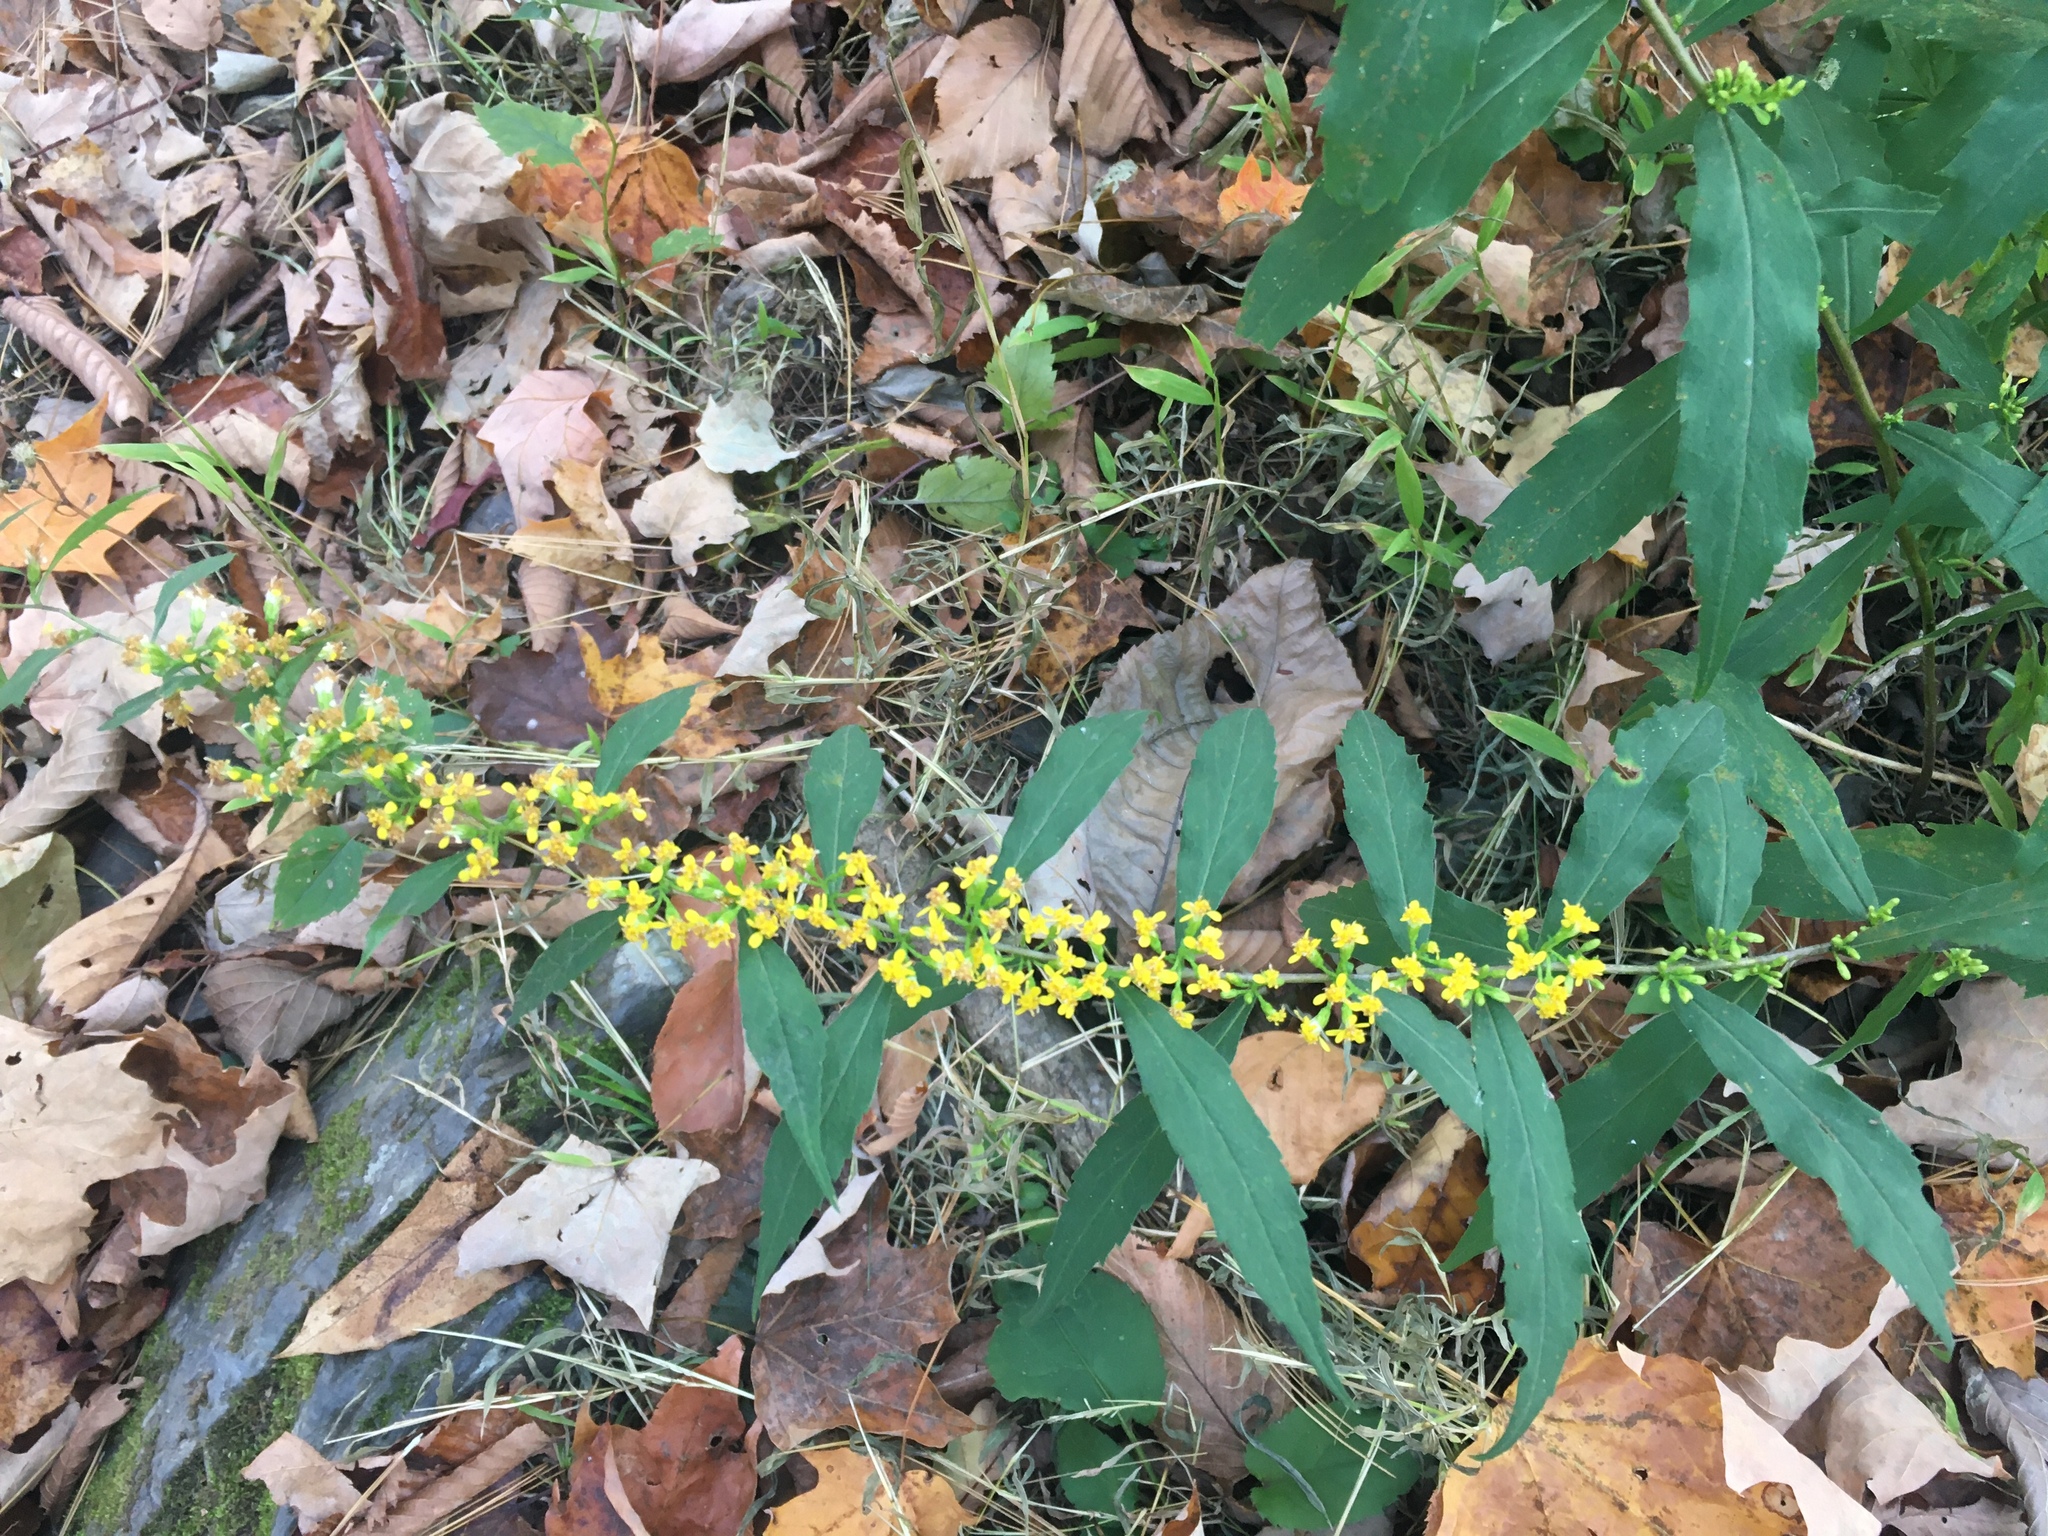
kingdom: Plantae
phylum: Tracheophyta
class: Magnoliopsida
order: Asterales
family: Asteraceae
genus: Solidago
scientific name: Solidago caesia
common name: Woodland goldenrod
